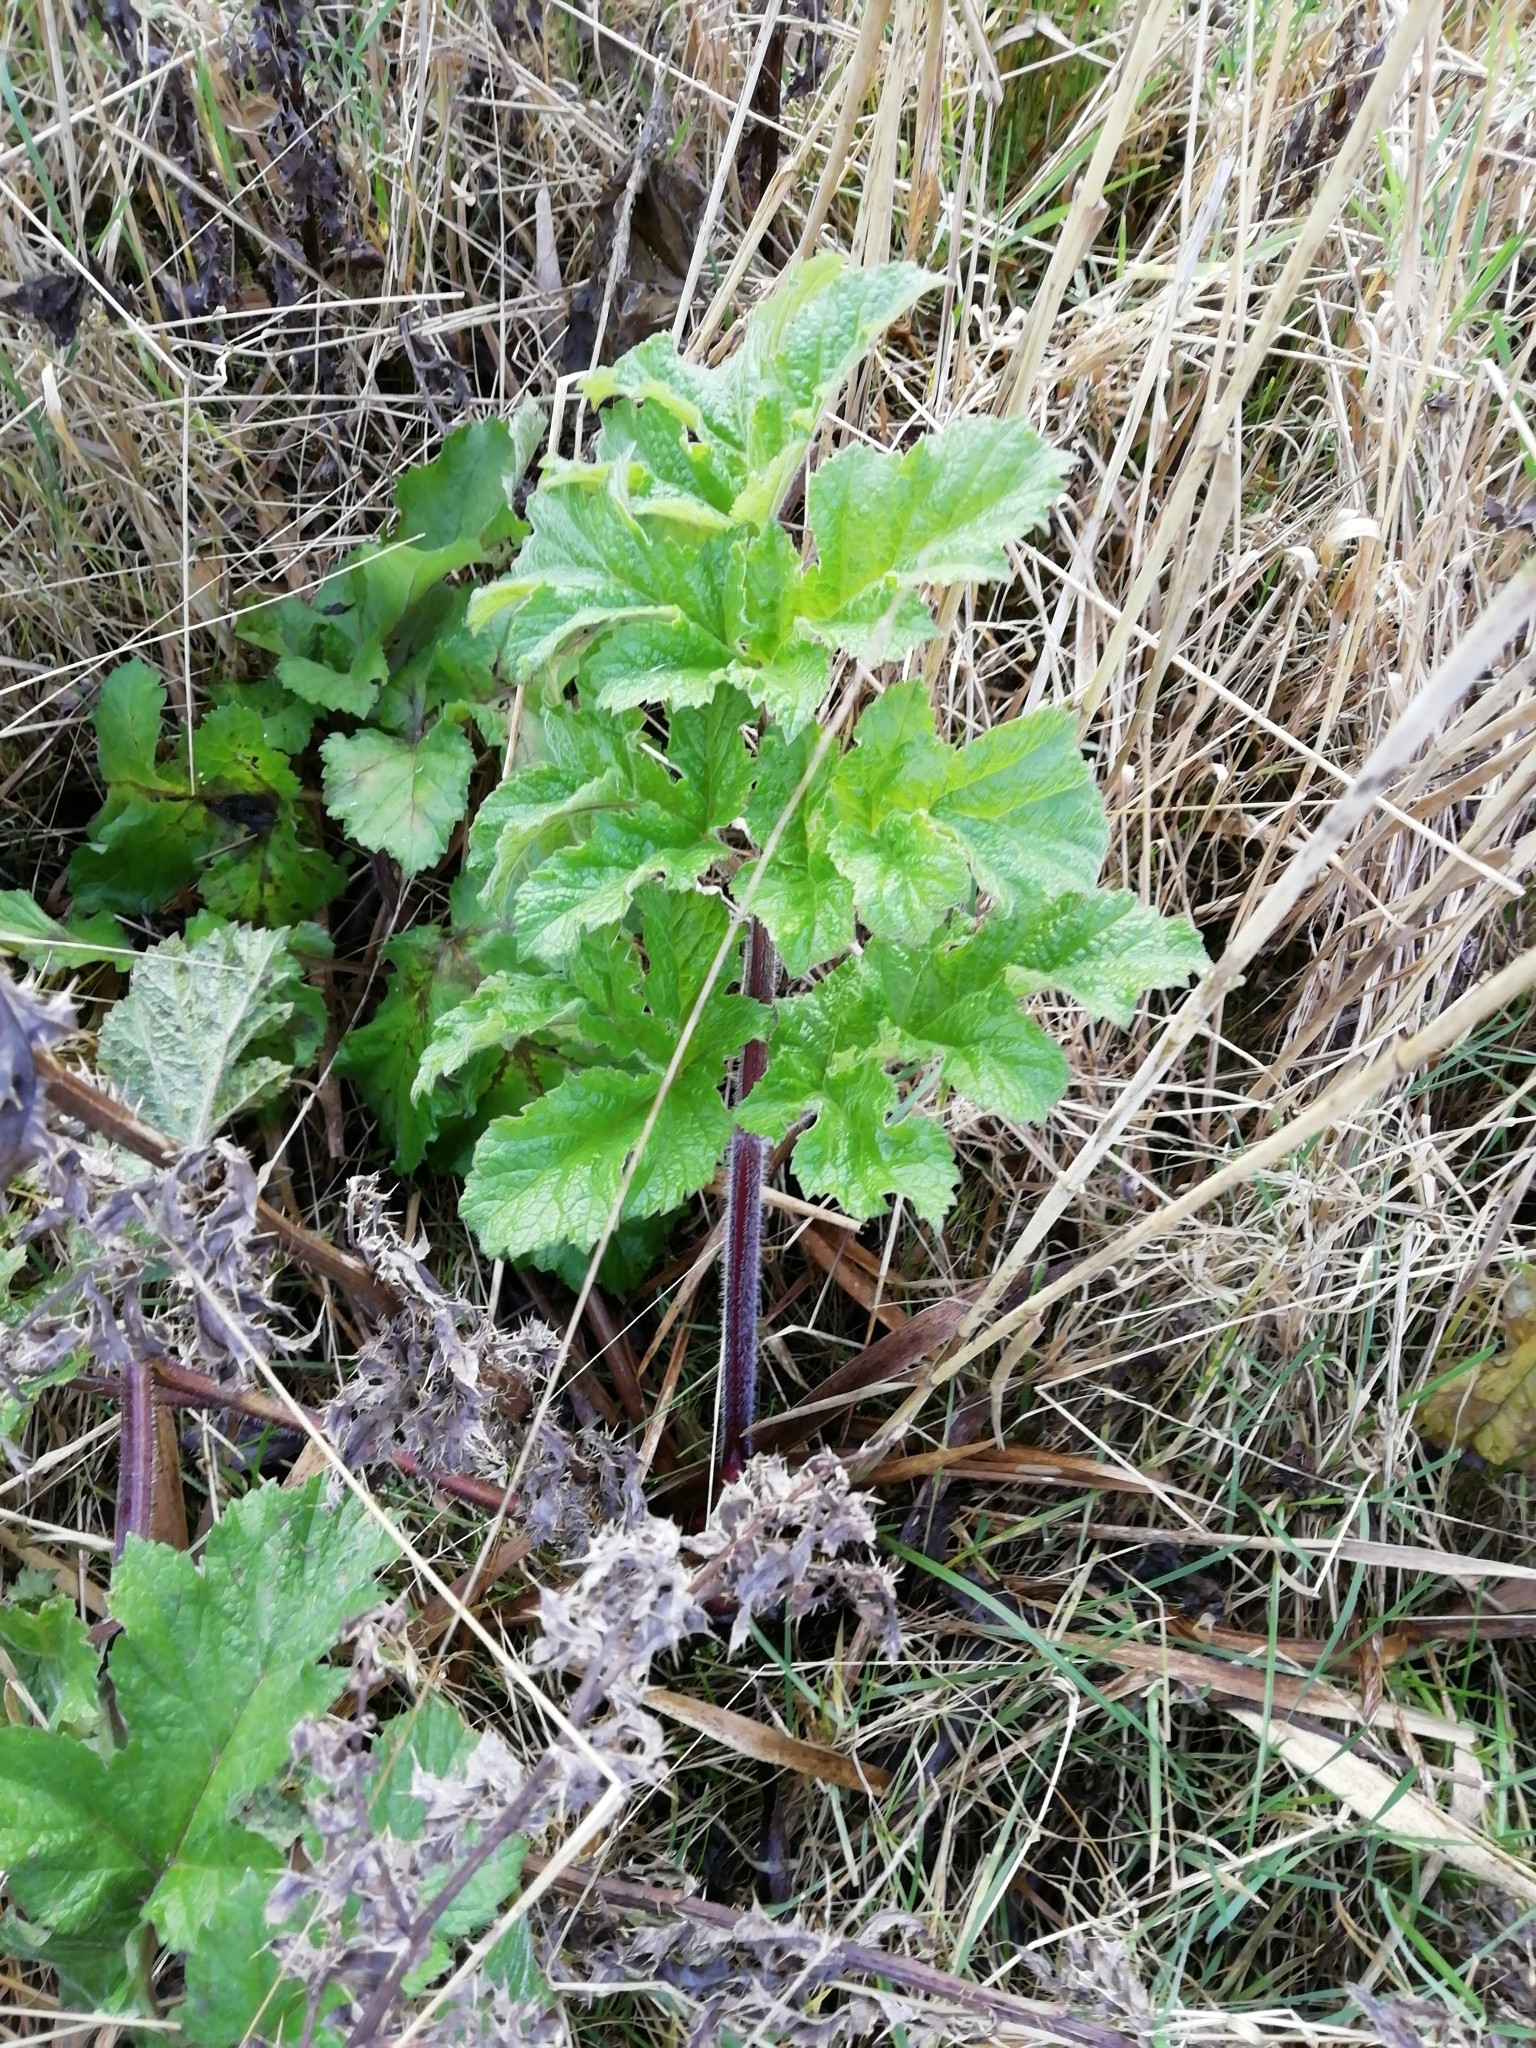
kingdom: Plantae
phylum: Tracheophyta
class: Magnoliopsida
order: Apiales
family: Apiaceae
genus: Heracleum
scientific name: Heracleum sphondylium
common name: Hogweed
